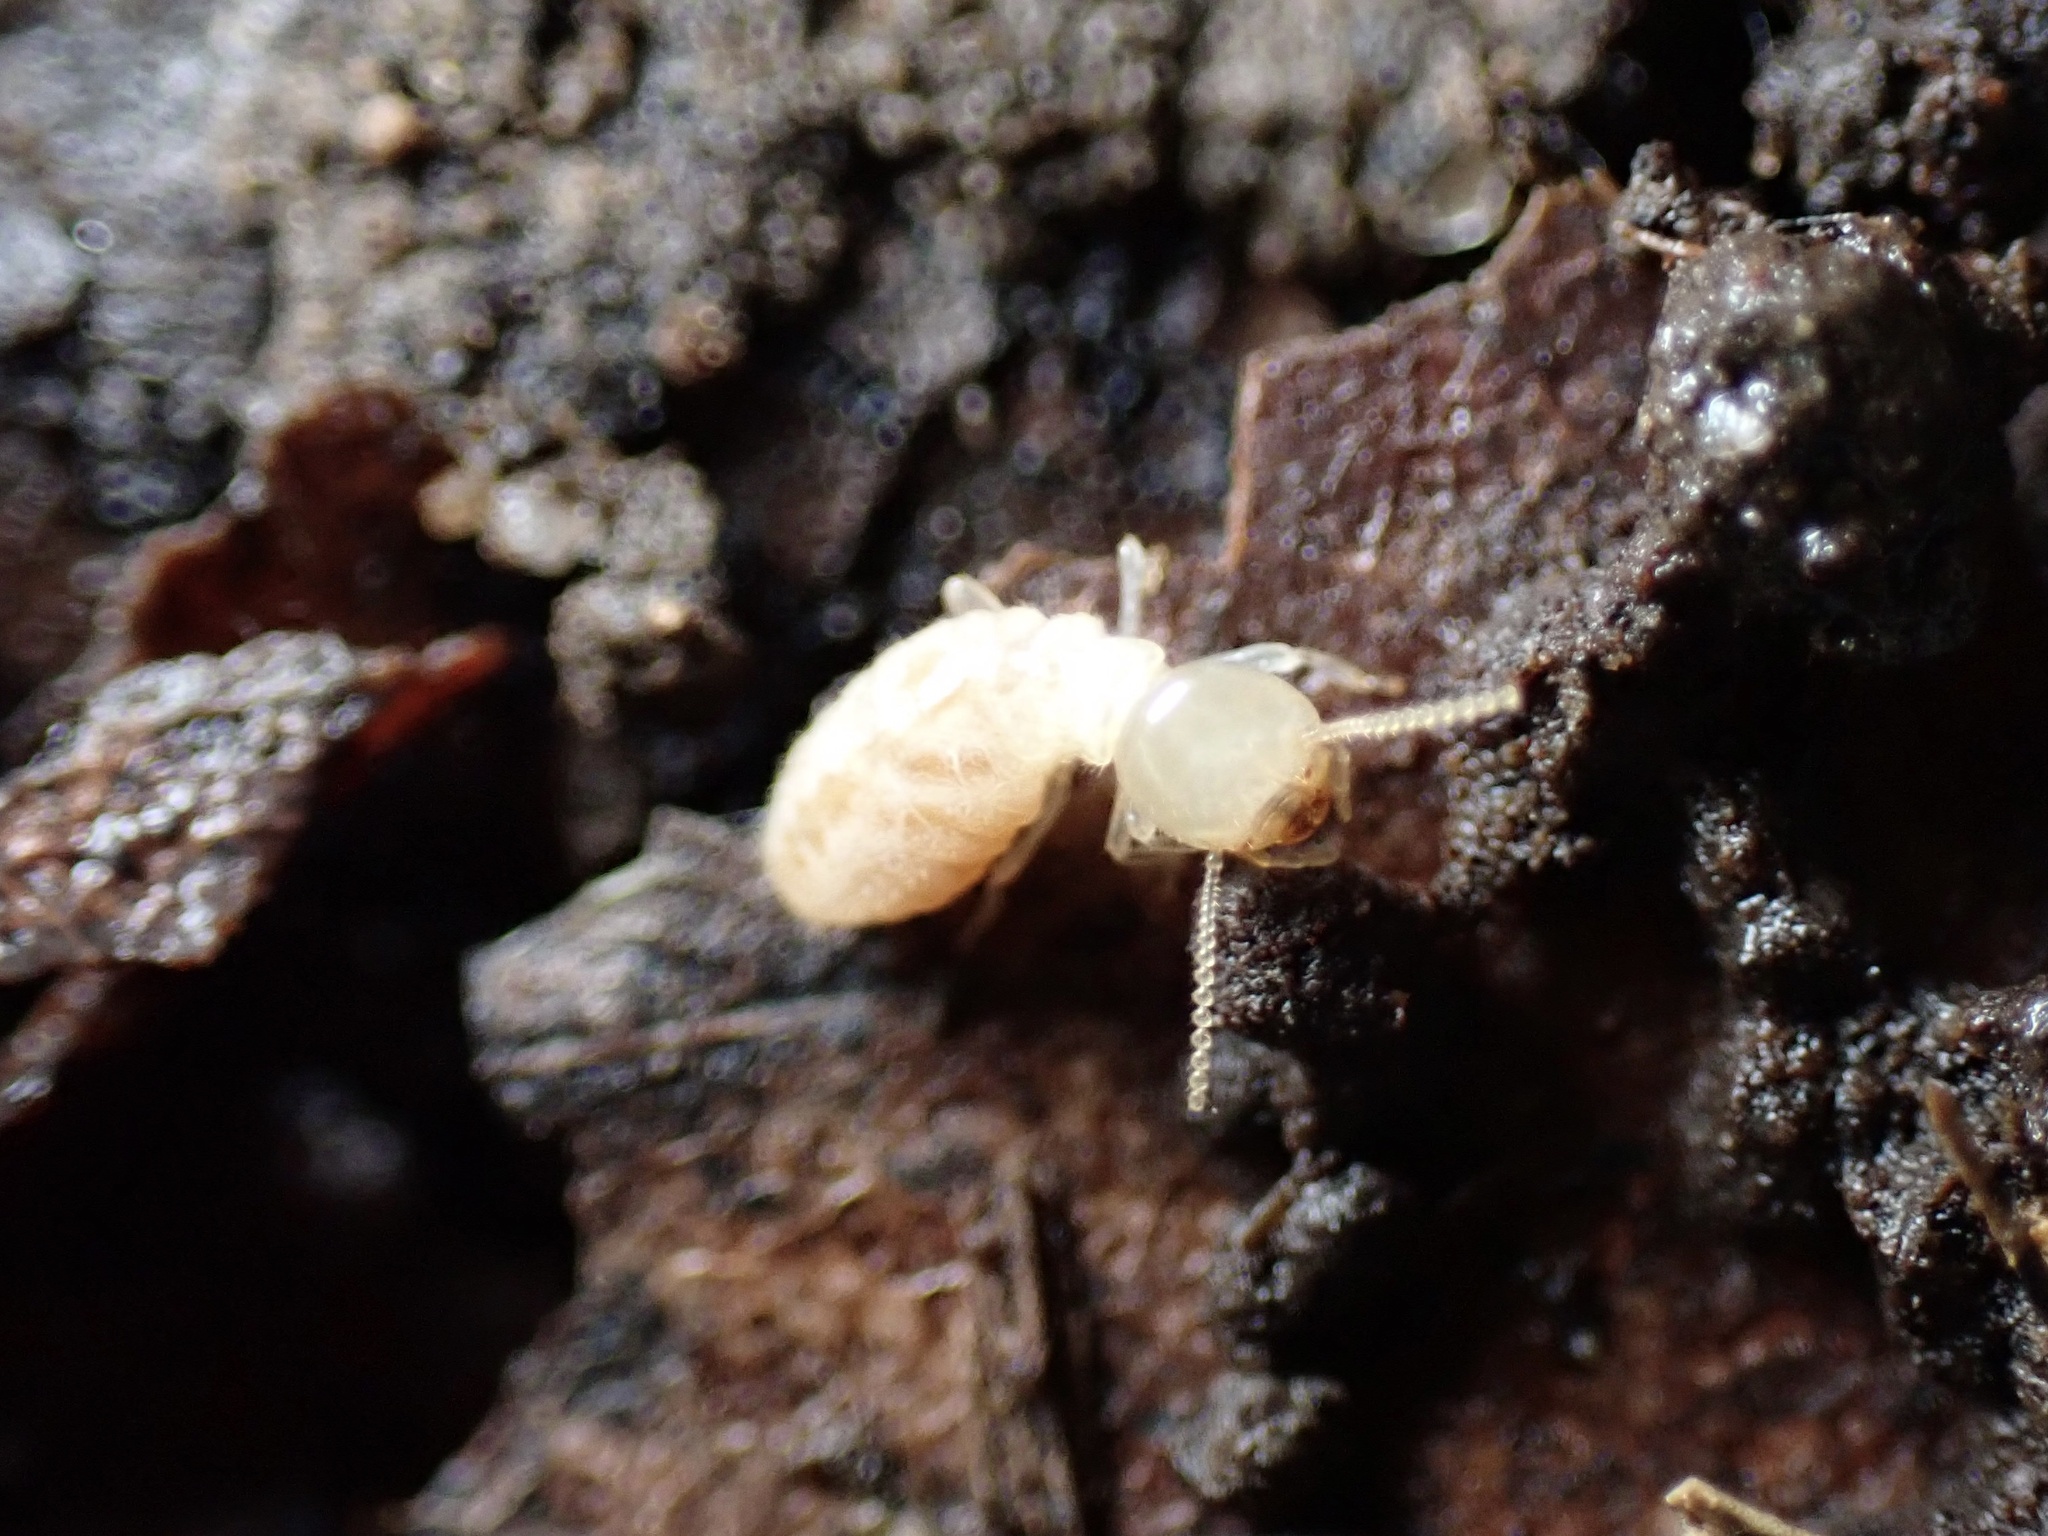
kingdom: Animalia
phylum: Arthropoda
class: Insecta
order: Blattodea
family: Rhinotermitidae
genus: Reticulitermes
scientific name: Reticulitermes flavipes
